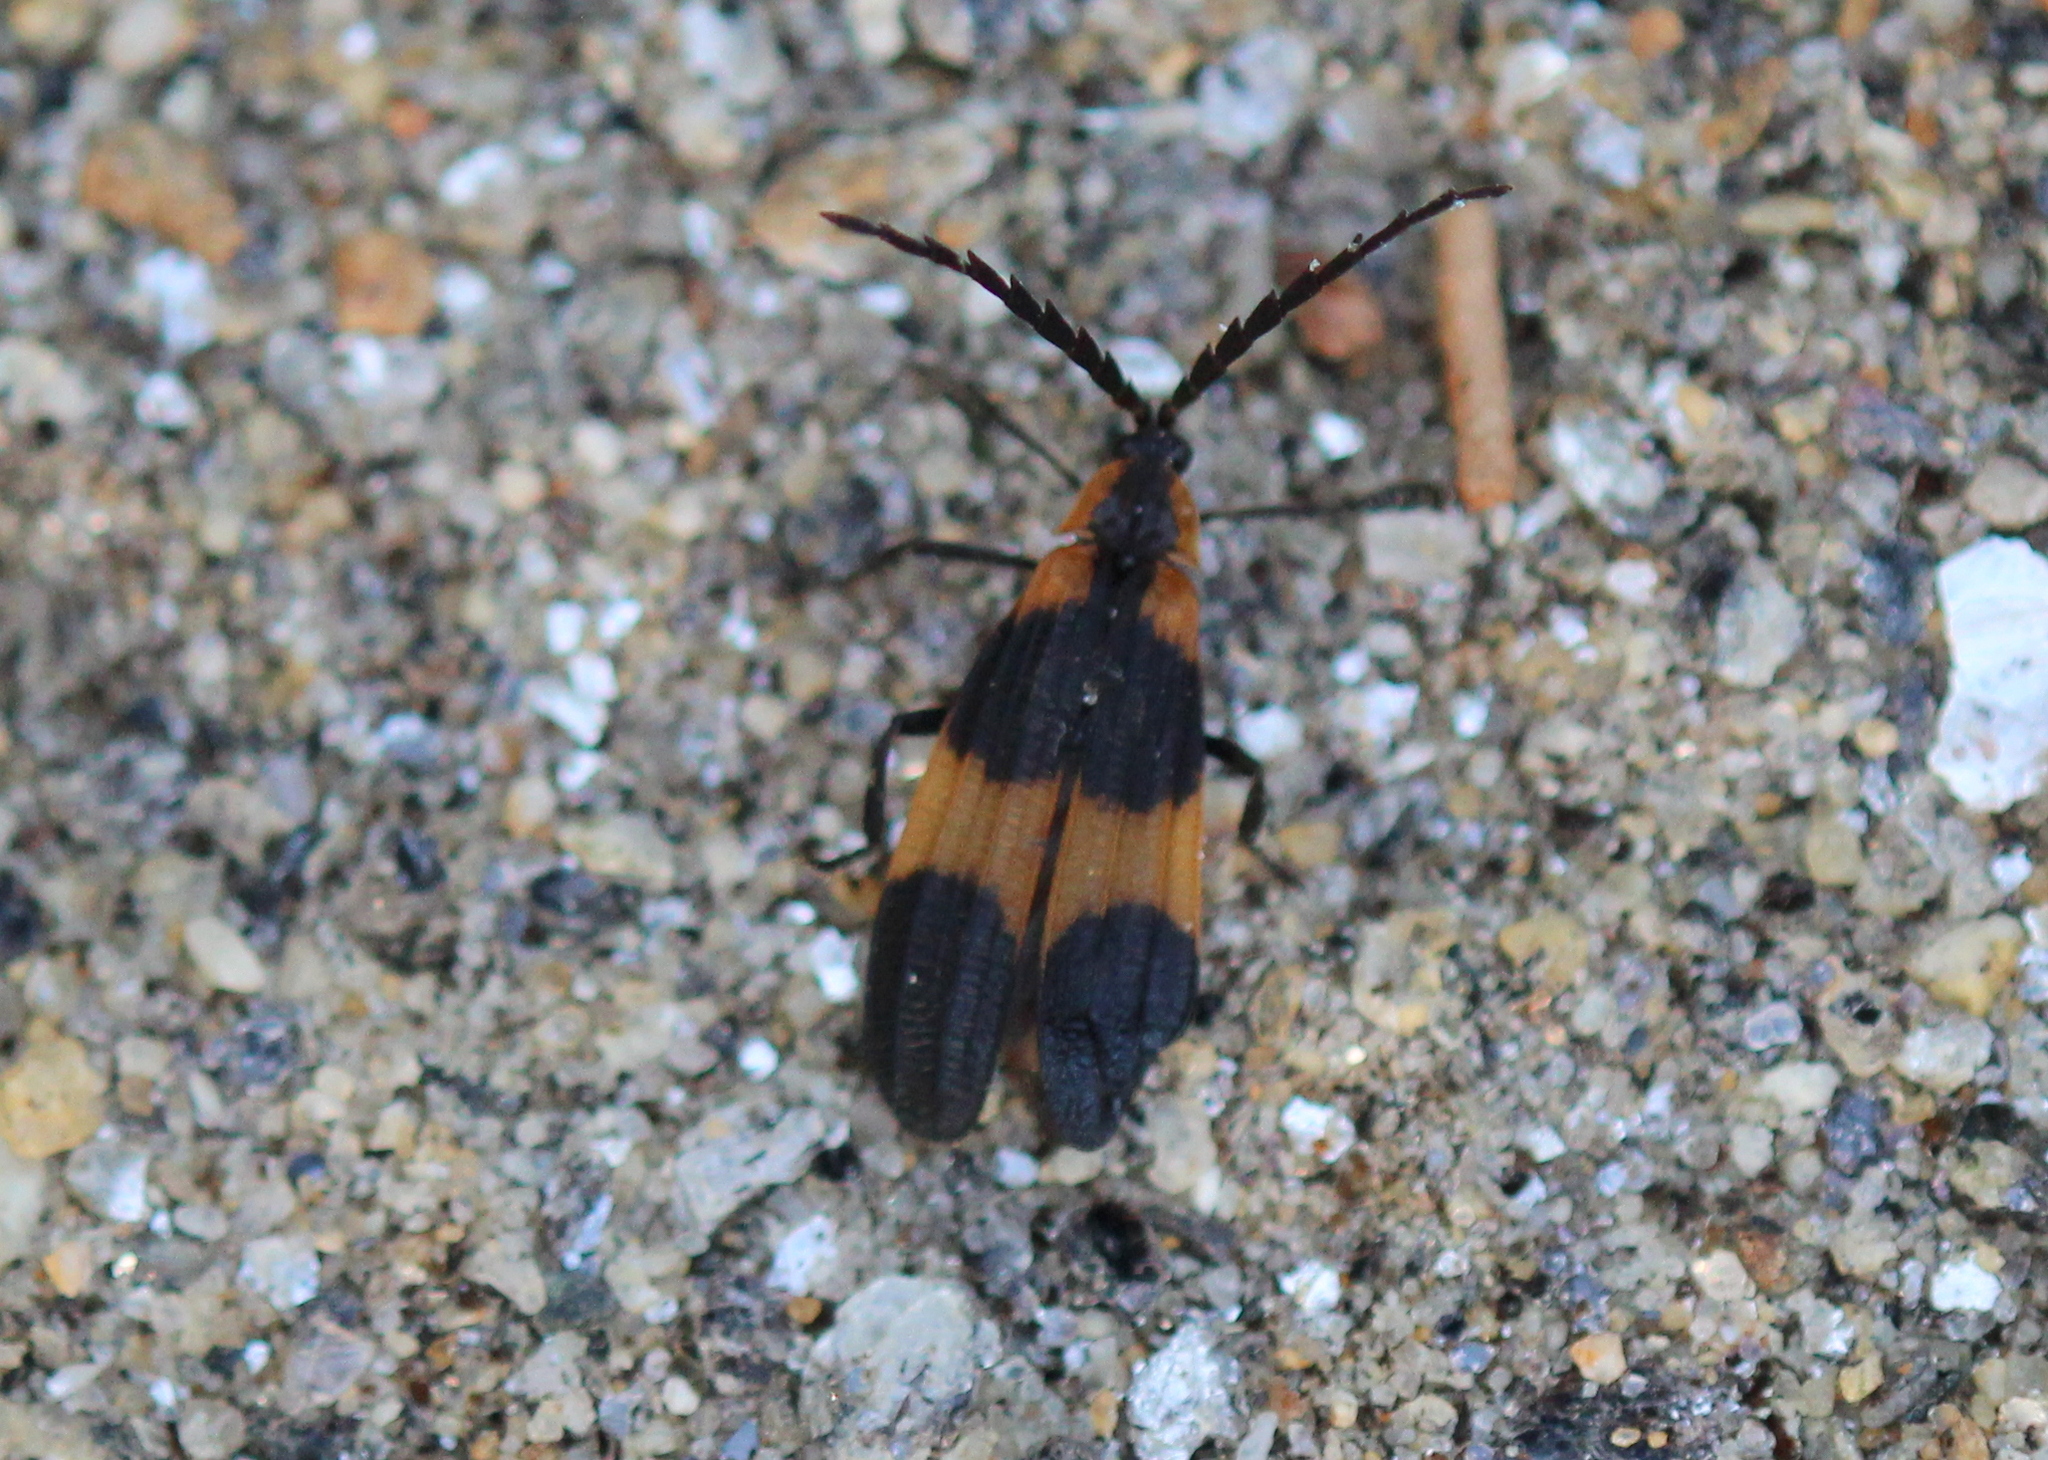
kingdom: Animalia
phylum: Arthropoda
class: Insecta
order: Coleoptera
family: Lycidae
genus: Calopteron
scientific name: Calopteron reticulatum
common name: Banded net-winged beetle
